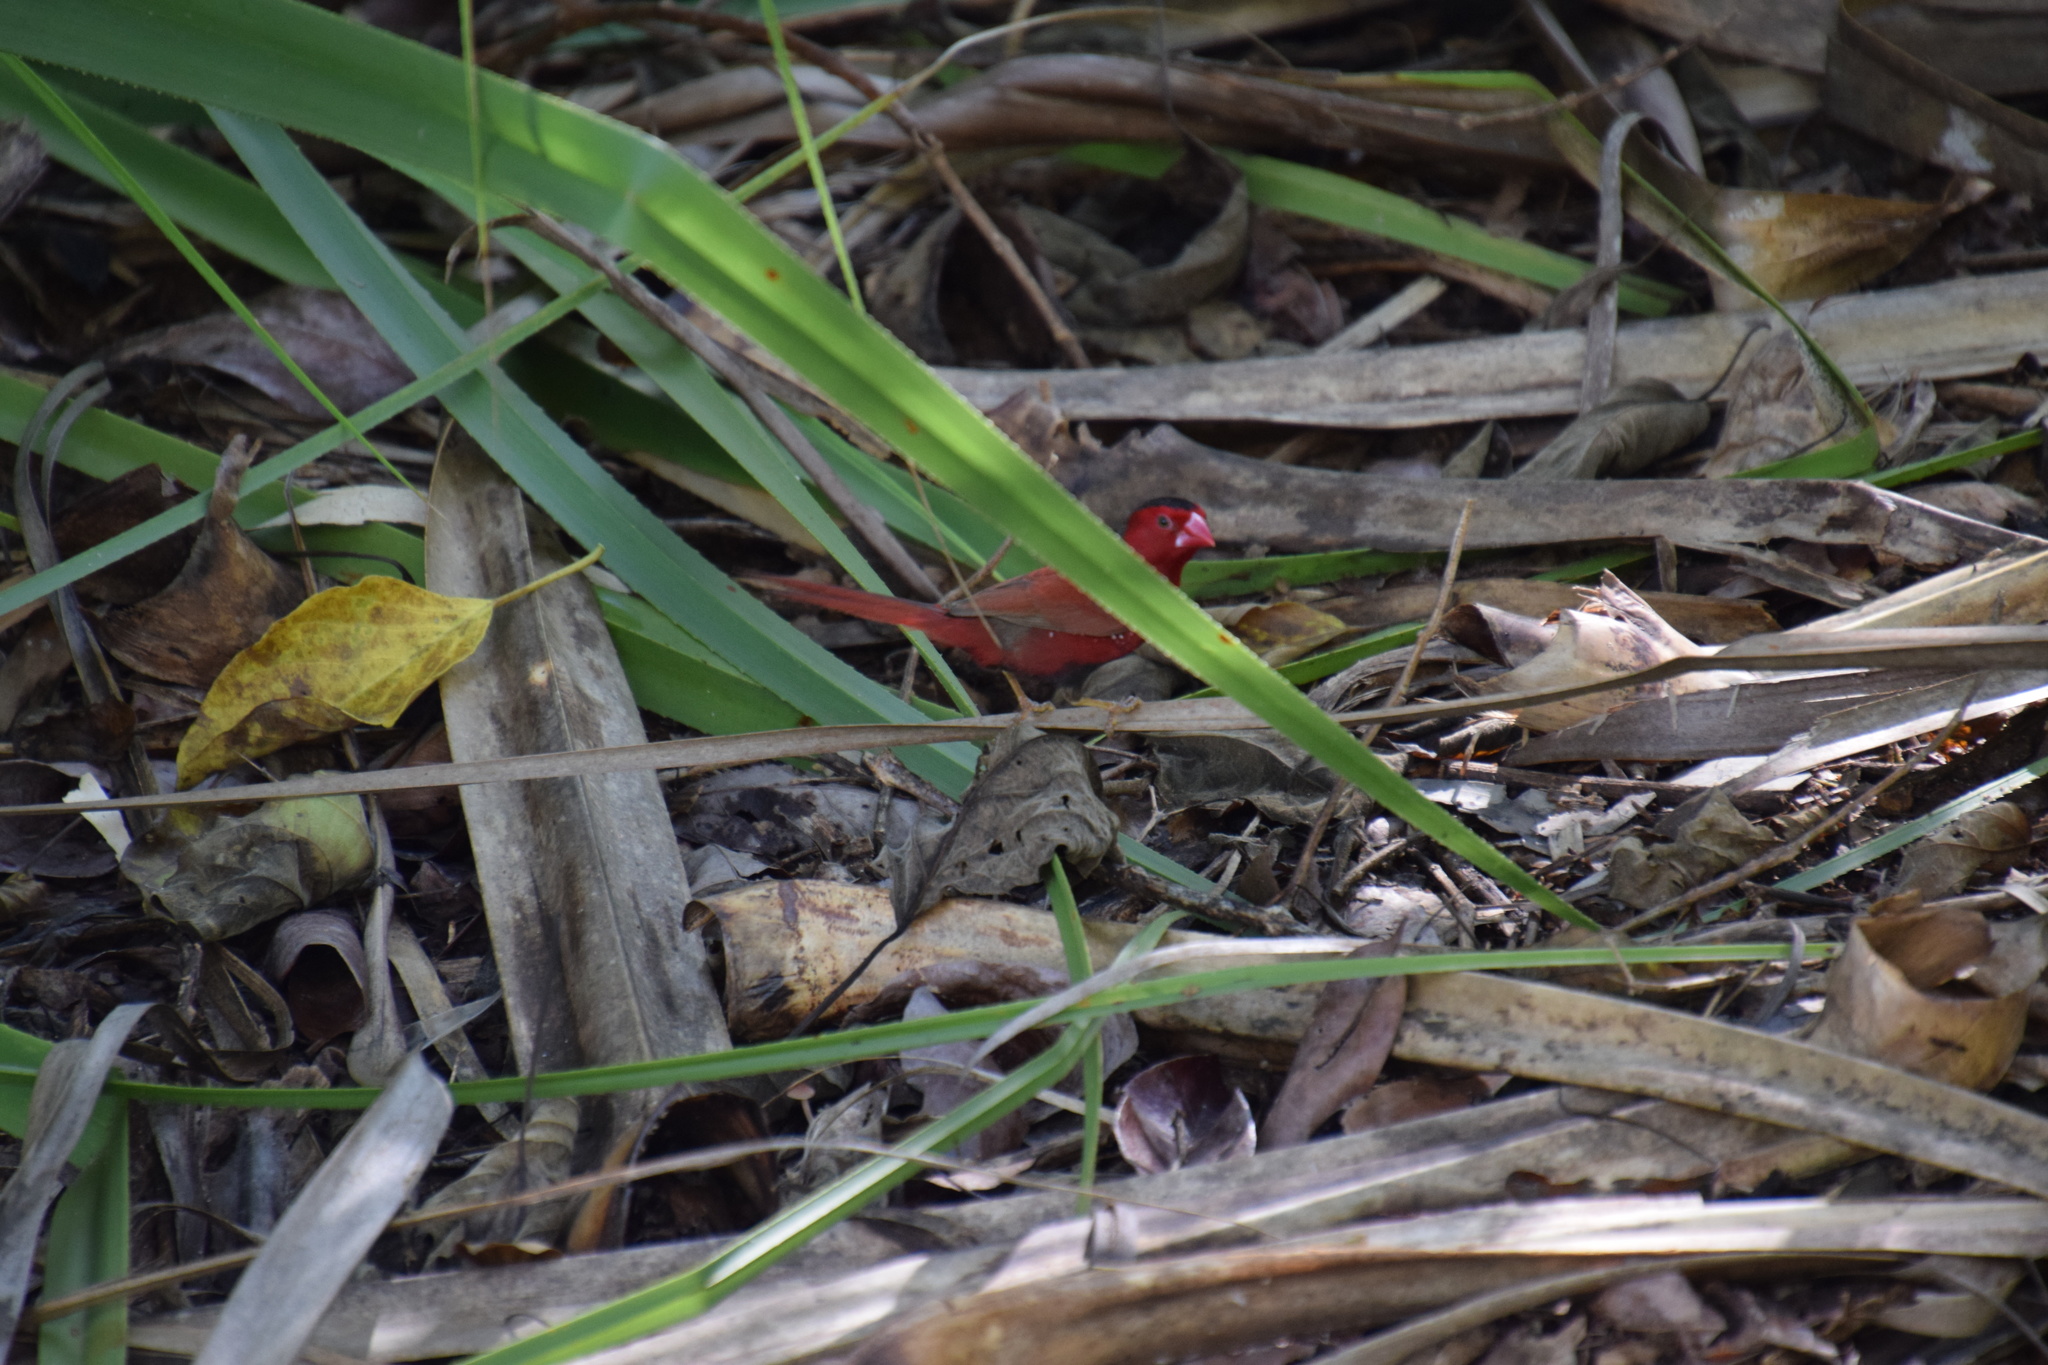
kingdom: Animalia
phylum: Chordata
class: Aves
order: Passeriformes
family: Estrildidae
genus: Neochmia
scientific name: Neochmia phaeton
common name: Crimson finch
